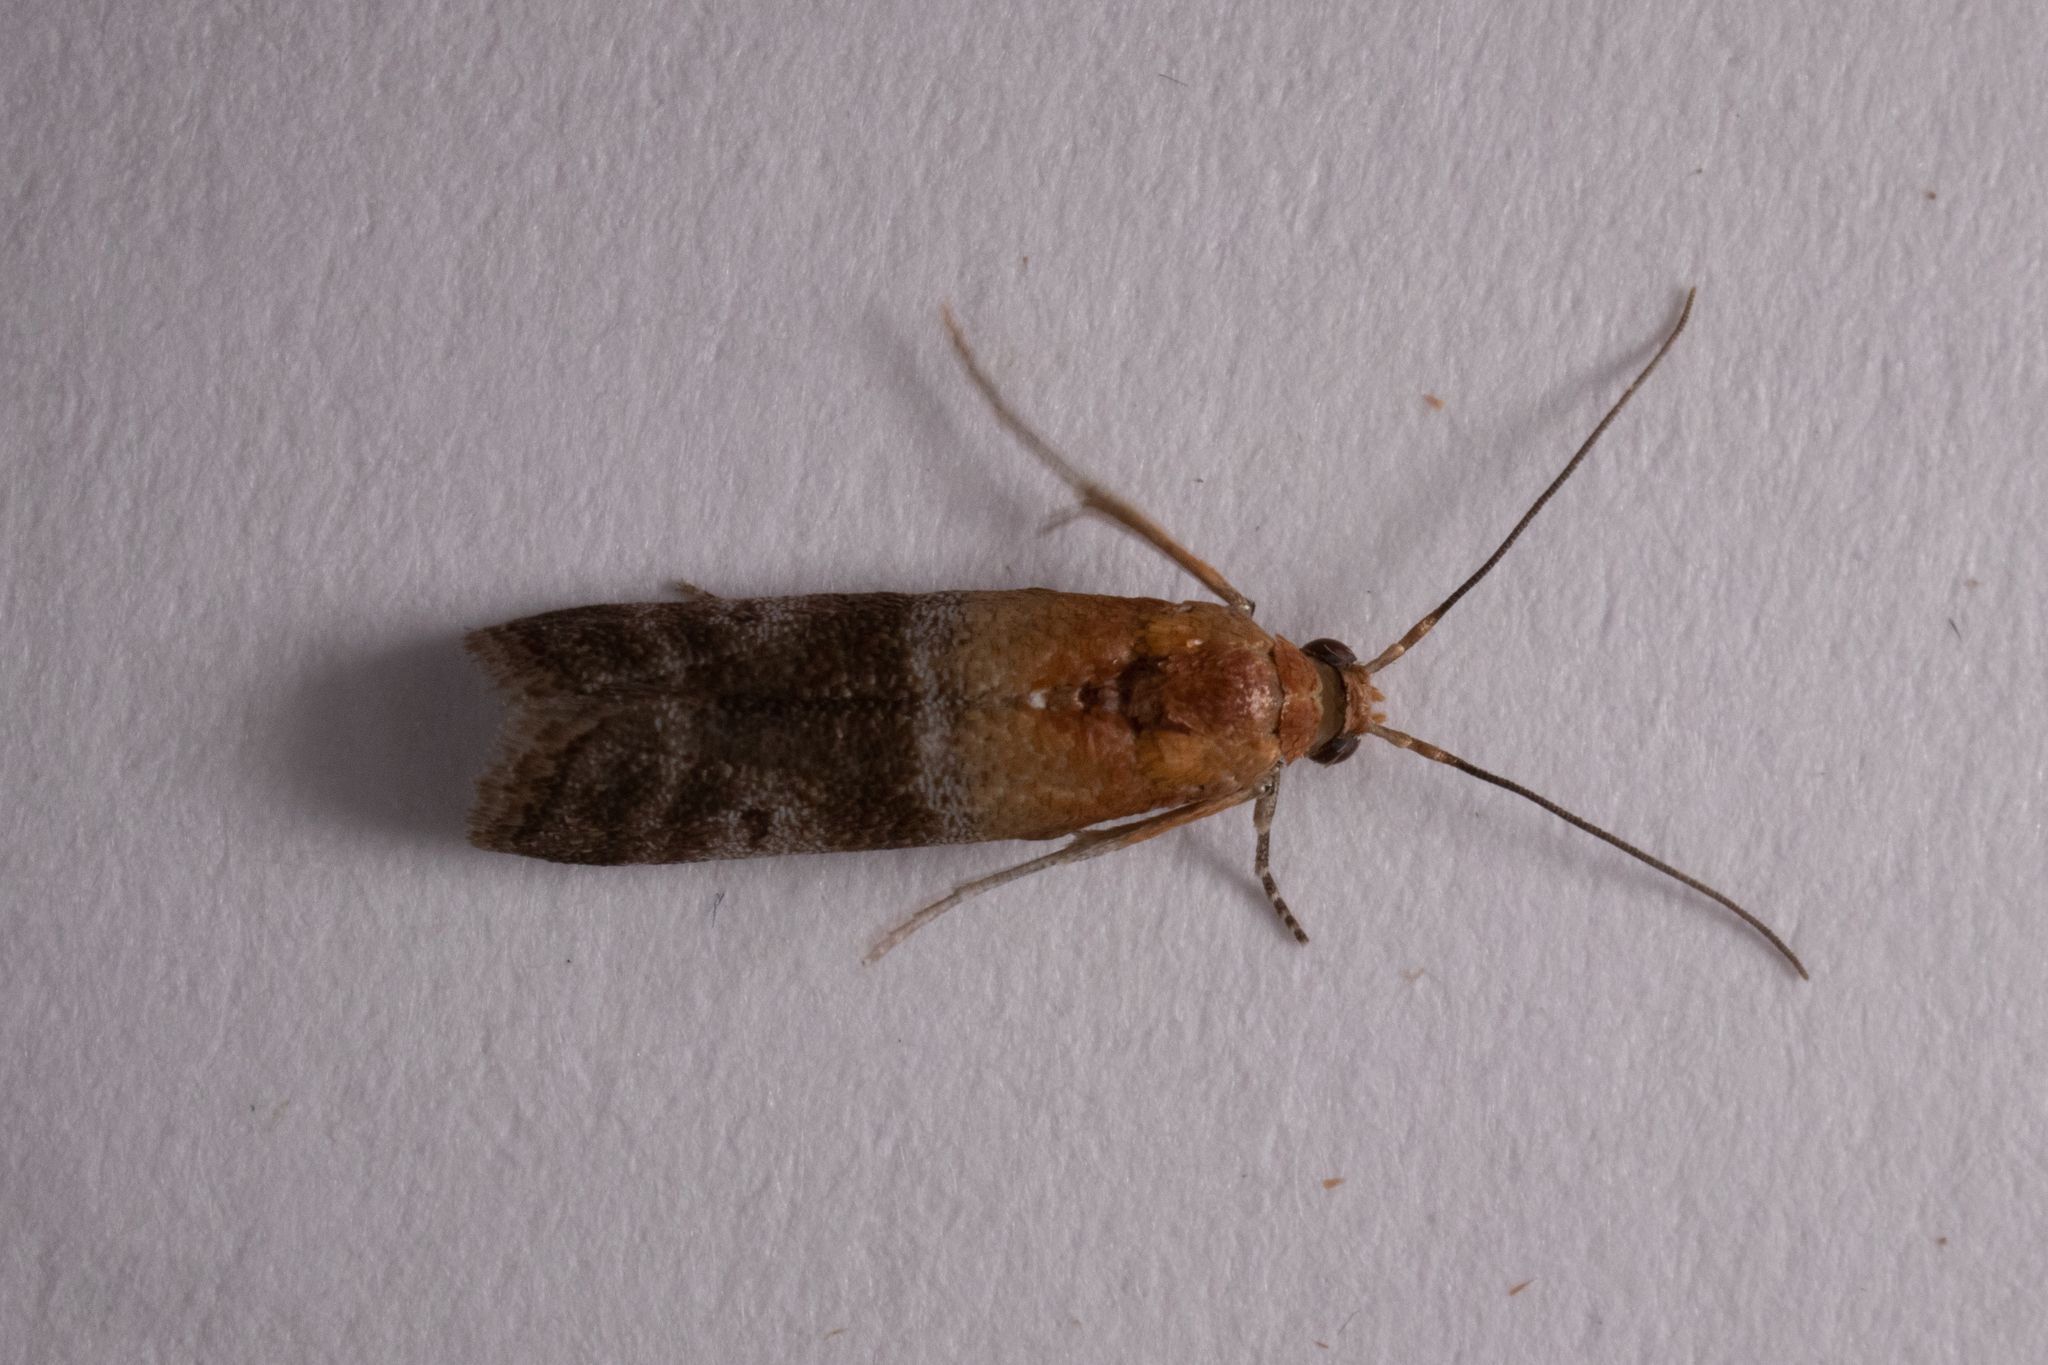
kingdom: Animalia
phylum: Arthropoda
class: Insecta
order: Lepidoptera
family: Pyralidae
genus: Moodna
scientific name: Moodna pallidostrinella
